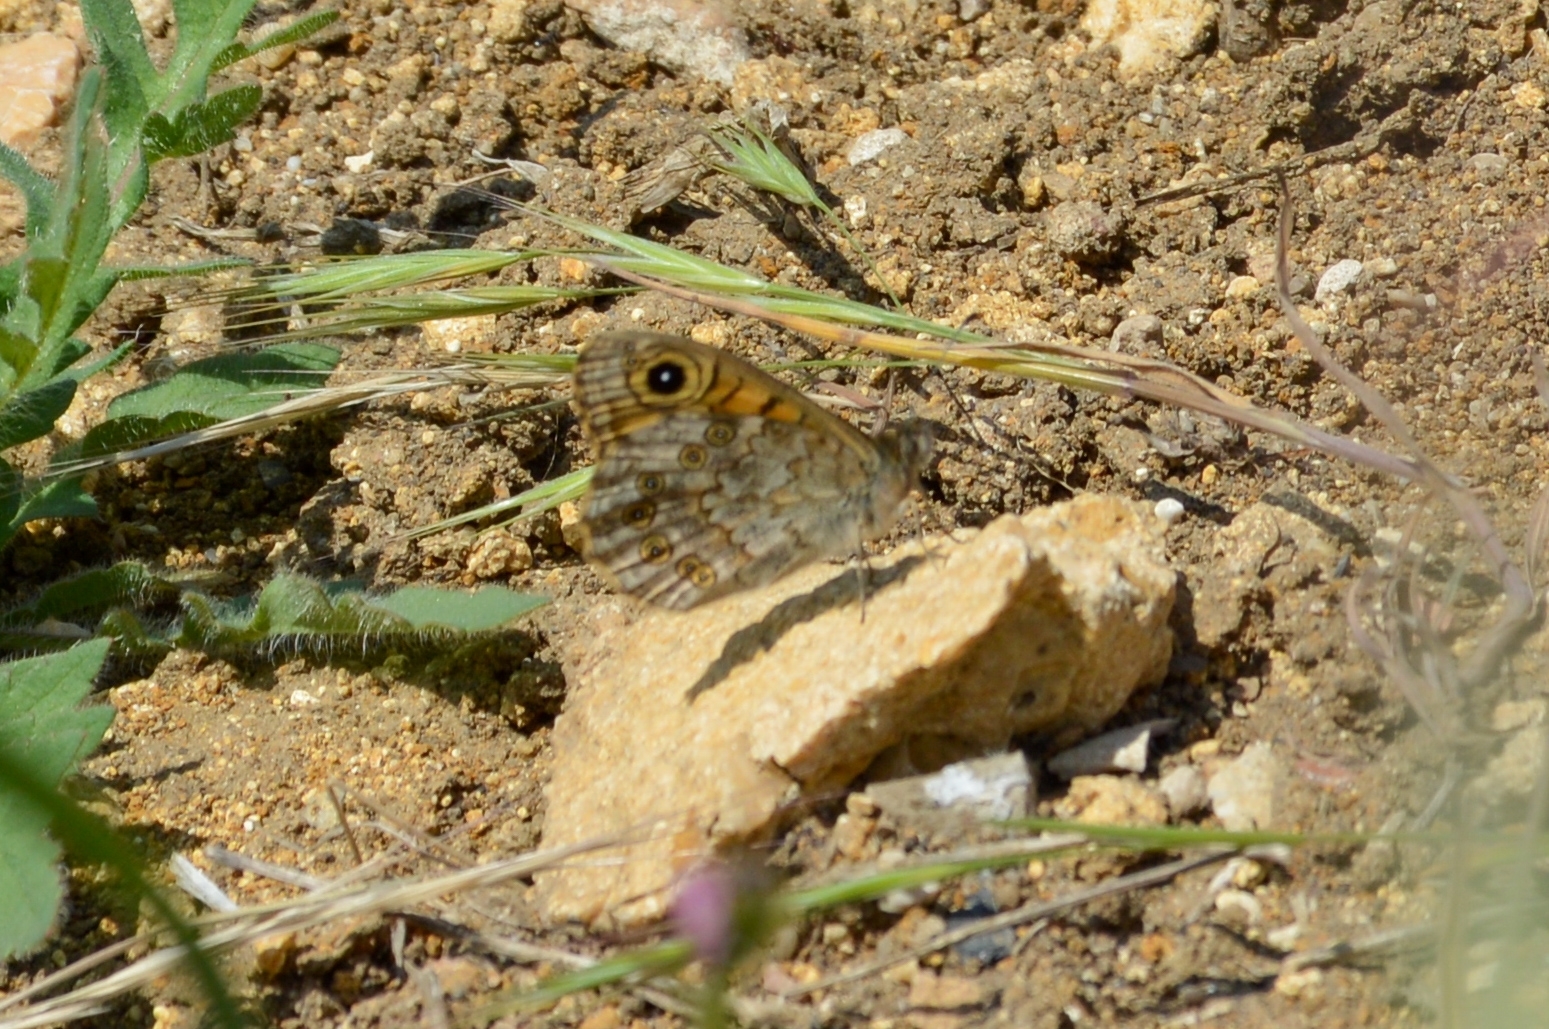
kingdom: Animalia
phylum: Arthropoda
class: Insecta
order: Lepidoptera
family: Nymphalidae
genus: Pararge
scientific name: Pararge Lasiommata megera
